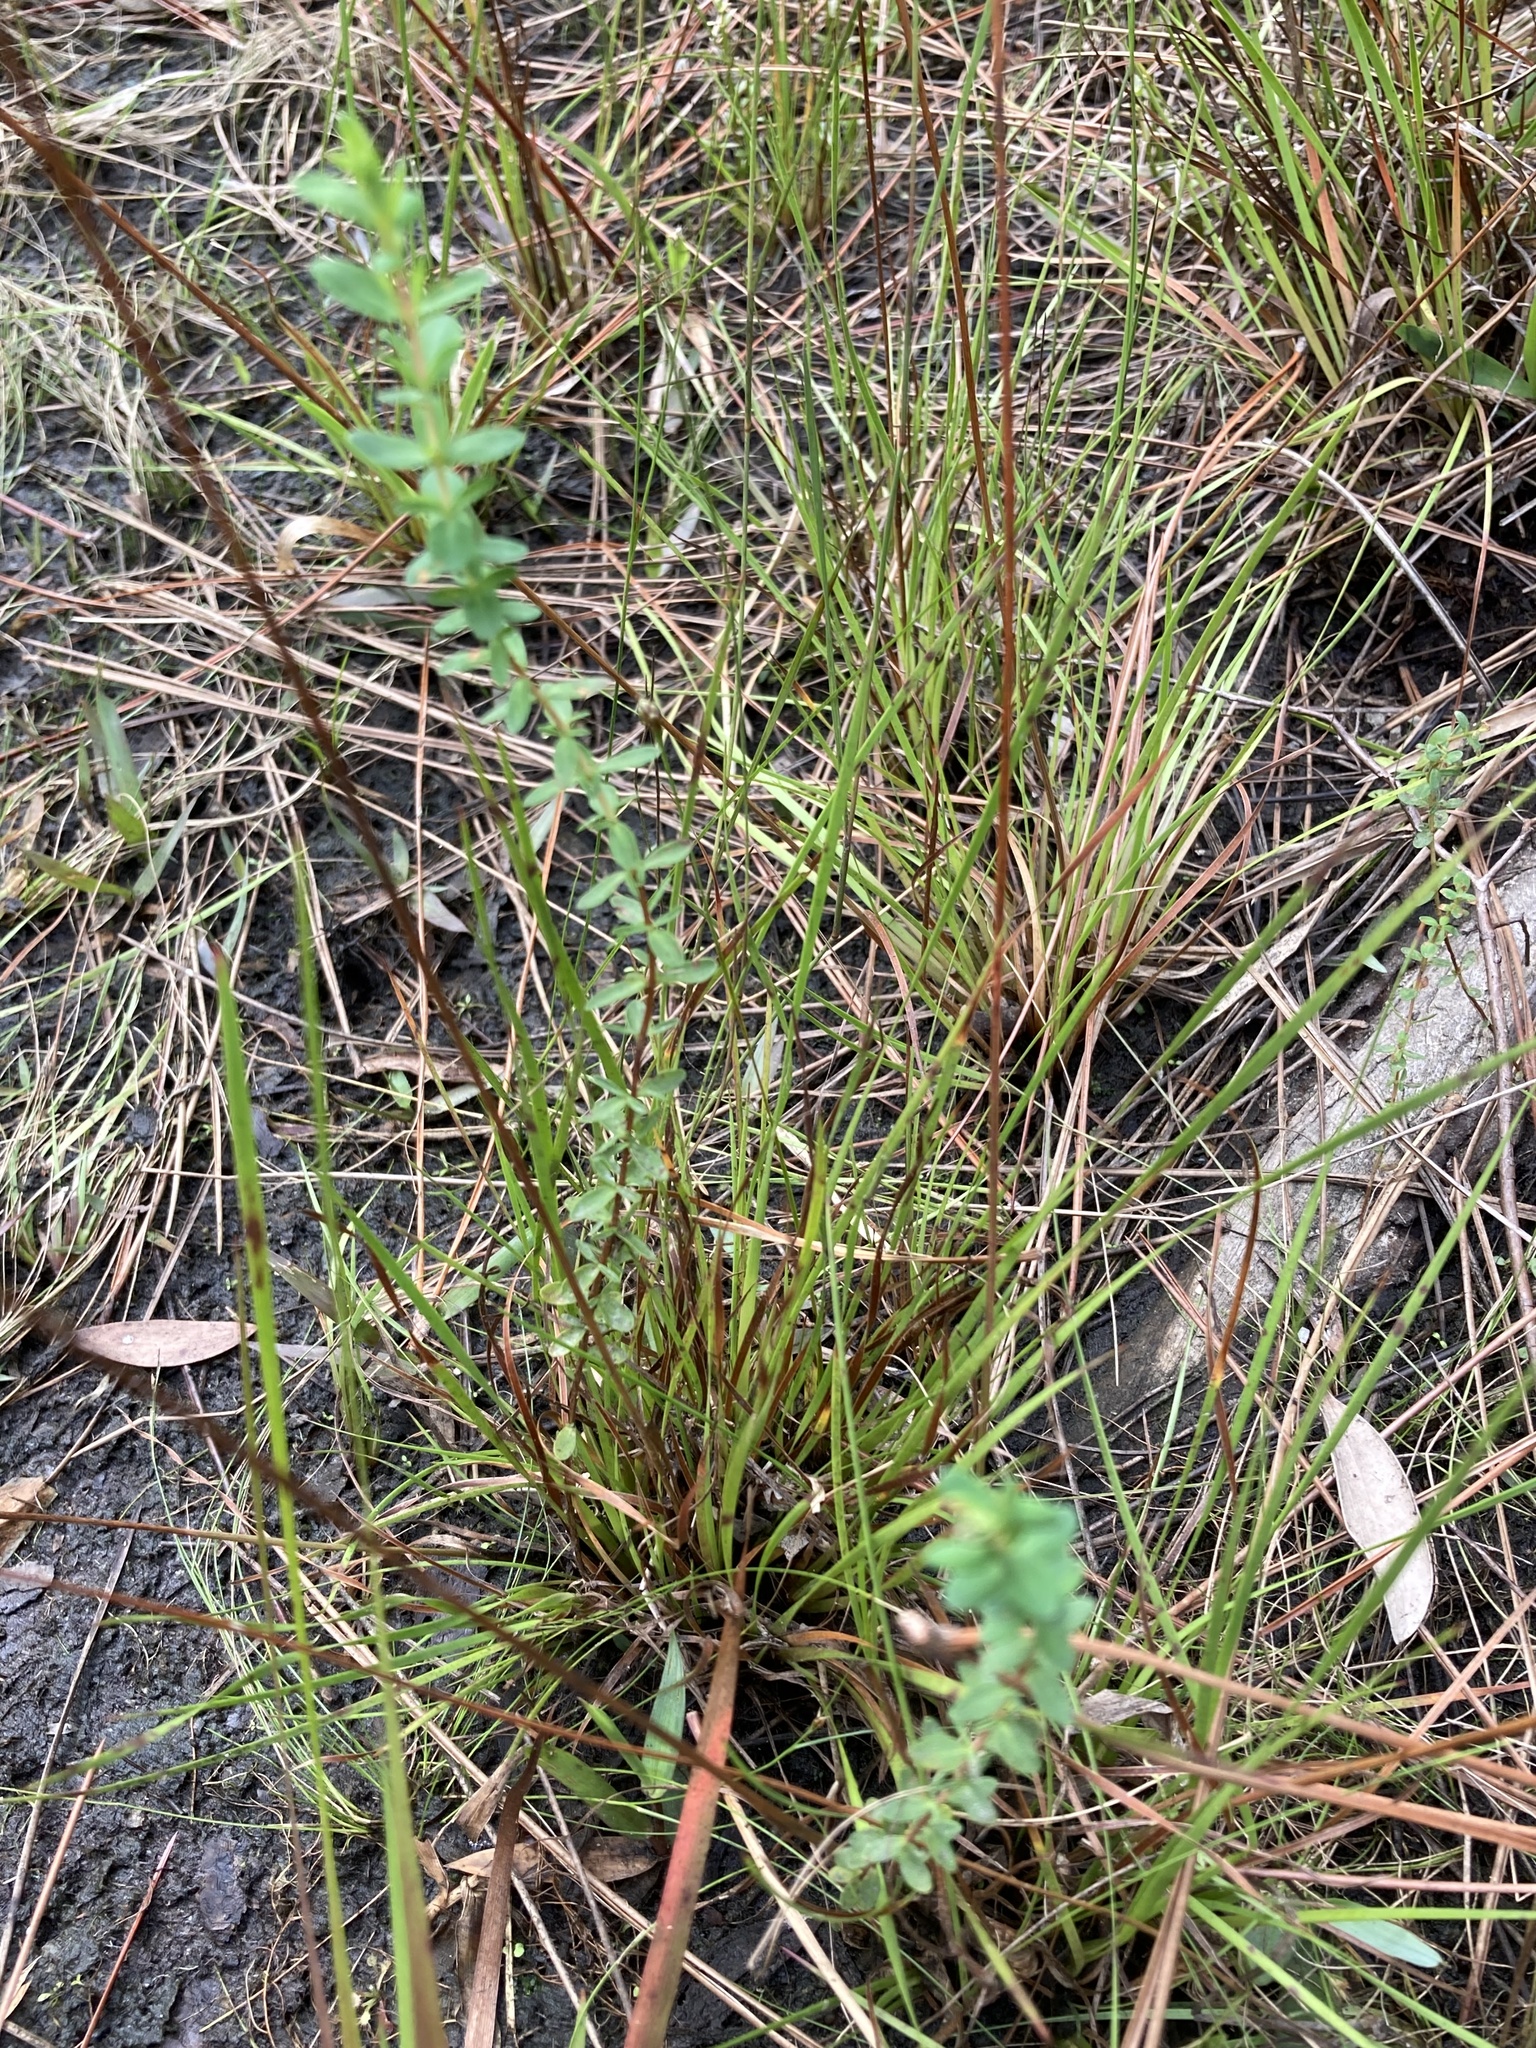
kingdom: Plantae
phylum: Tracheophyta
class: Magnoliopsida
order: Malpighiales
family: Hypericaceae
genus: Hypericum
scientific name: Hypericum fasciculatum
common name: Peelbark st. john's wort
